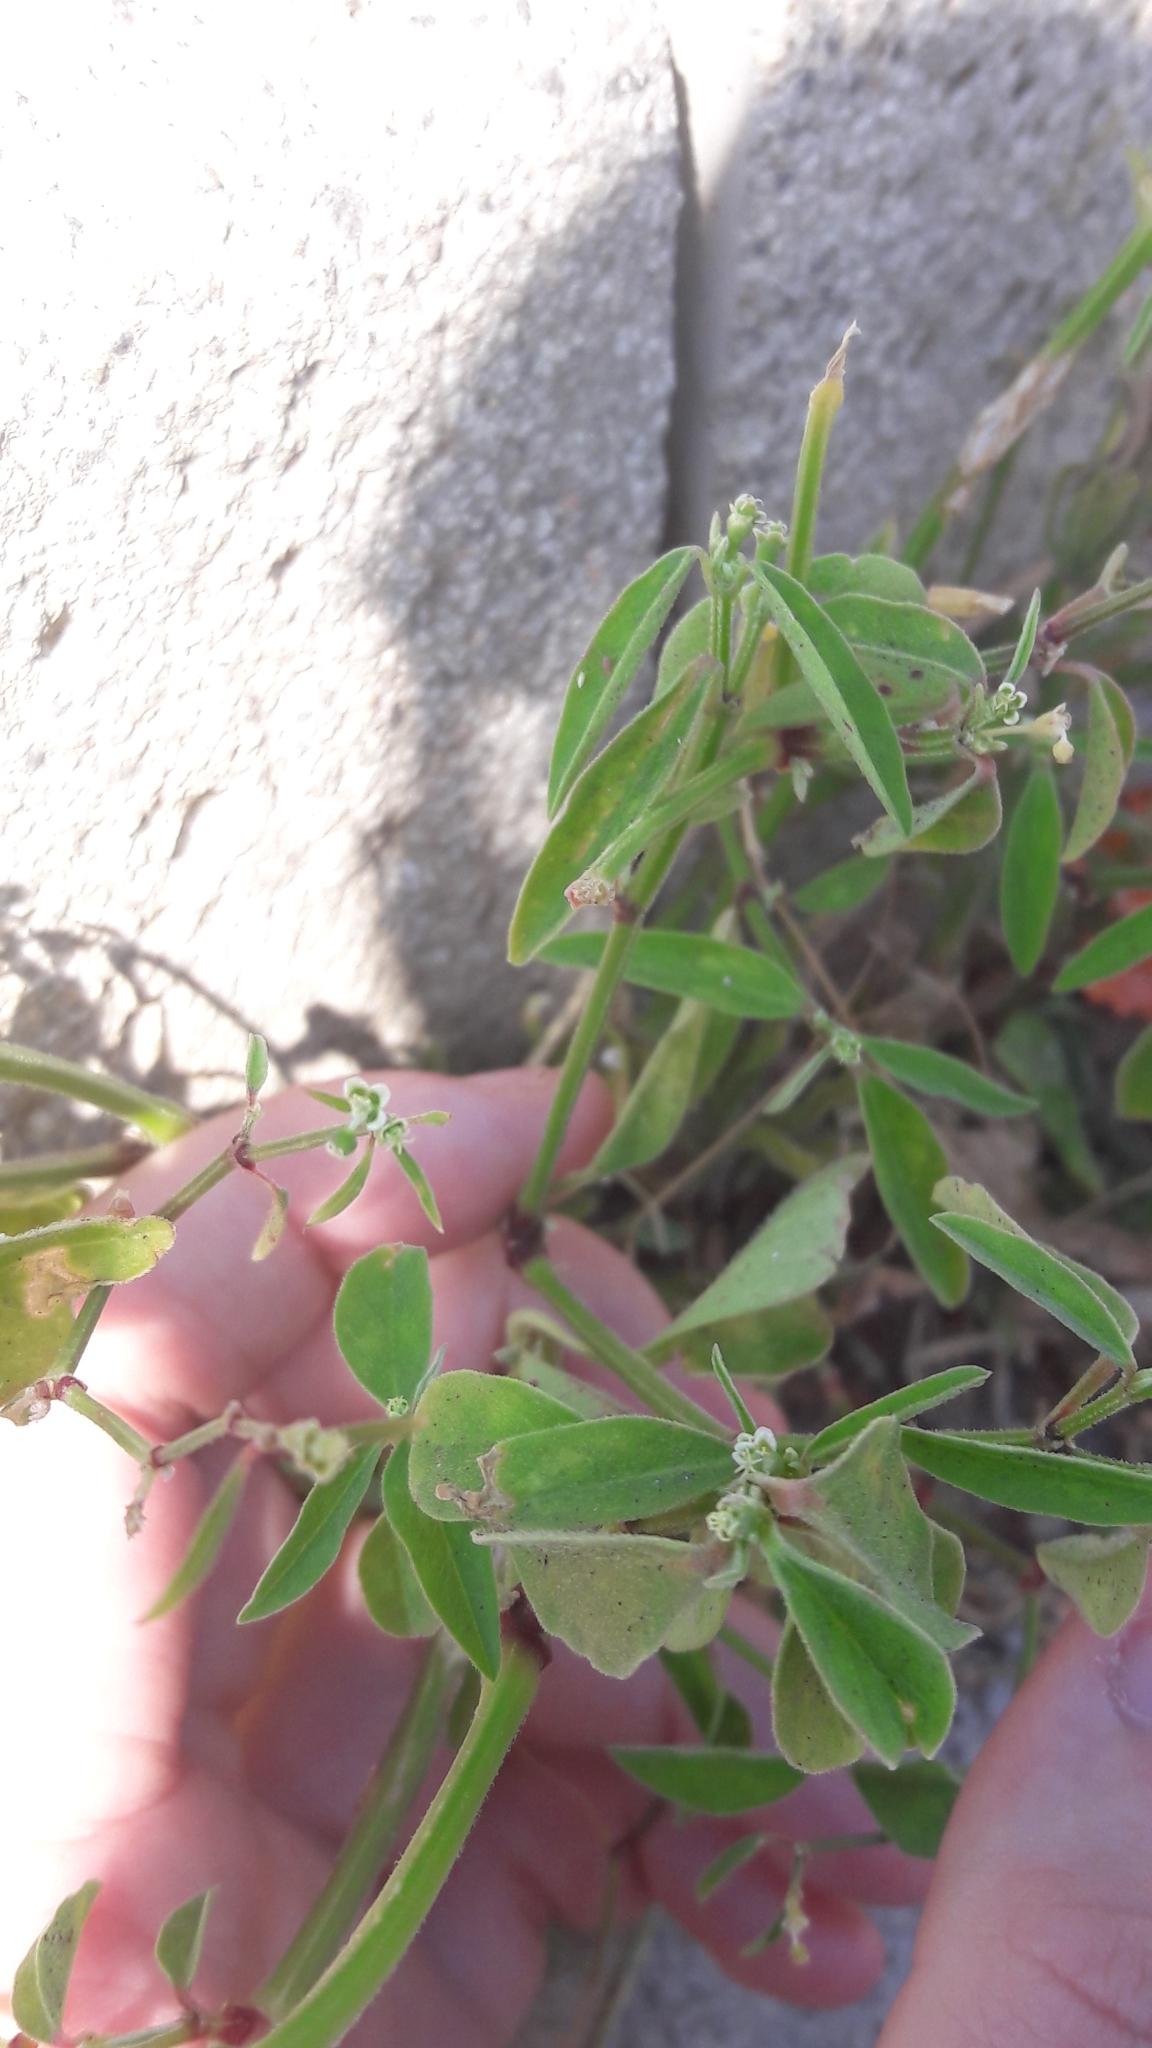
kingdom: Plantae
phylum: Tracheophyta
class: Magnoliopsida
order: Malpighiales
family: Euphorbiaceae
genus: Euphorbia
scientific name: Euphorbia graminea
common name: Grassleaf spurge
